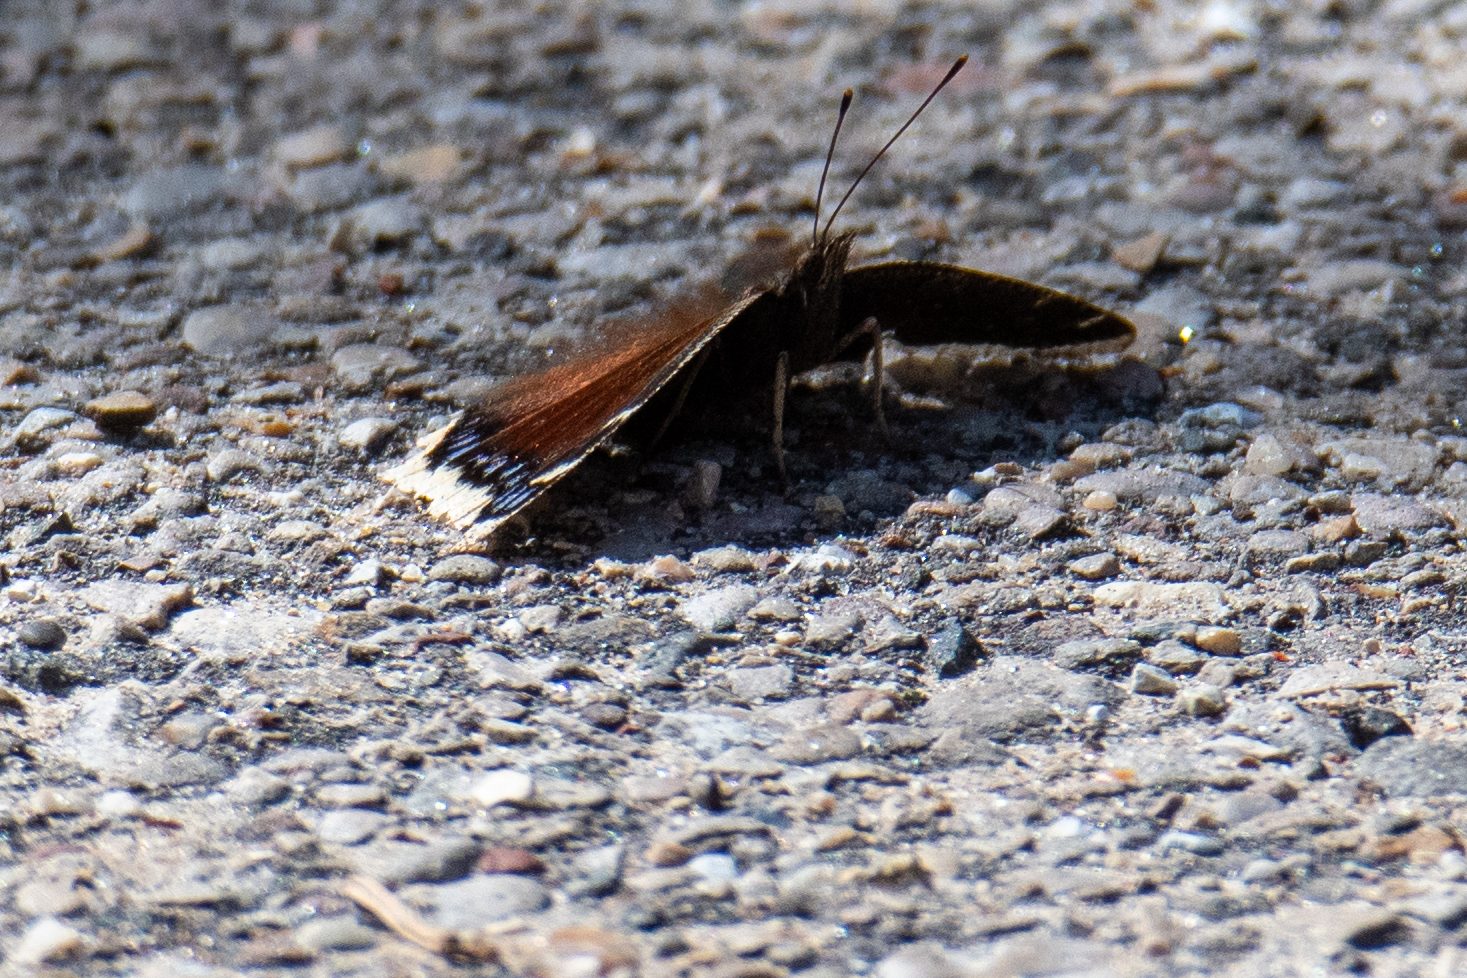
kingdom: Animalia
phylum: Arthropoda
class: Insecta
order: Lepidoptera
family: Nymphalidae
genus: Nymphalis
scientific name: Nymphalis antiopa
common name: Camberwell beauty
